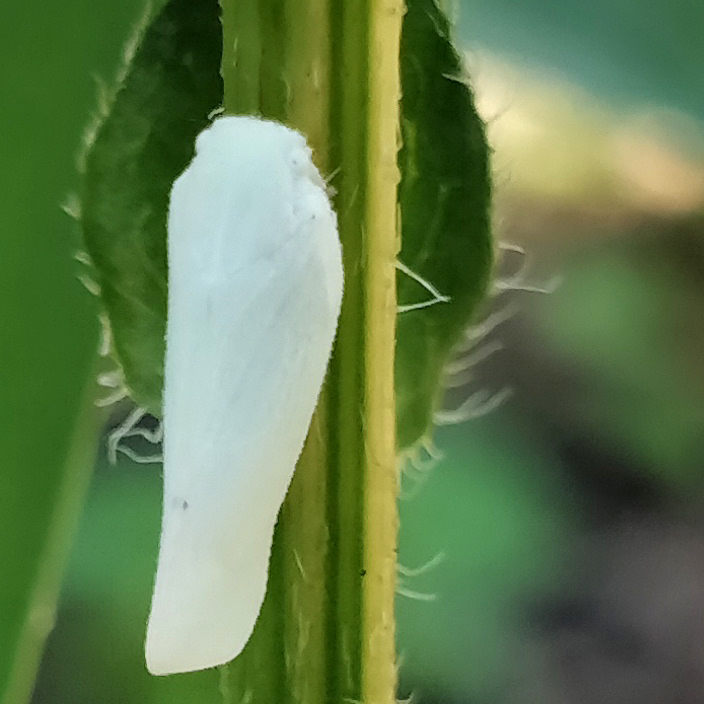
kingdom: Animalia
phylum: Arthropoda
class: Insecta
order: Hemiptera
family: Flatidae
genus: Flatormenis
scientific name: Flatormenis proxima
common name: Northern flatid planthopper
